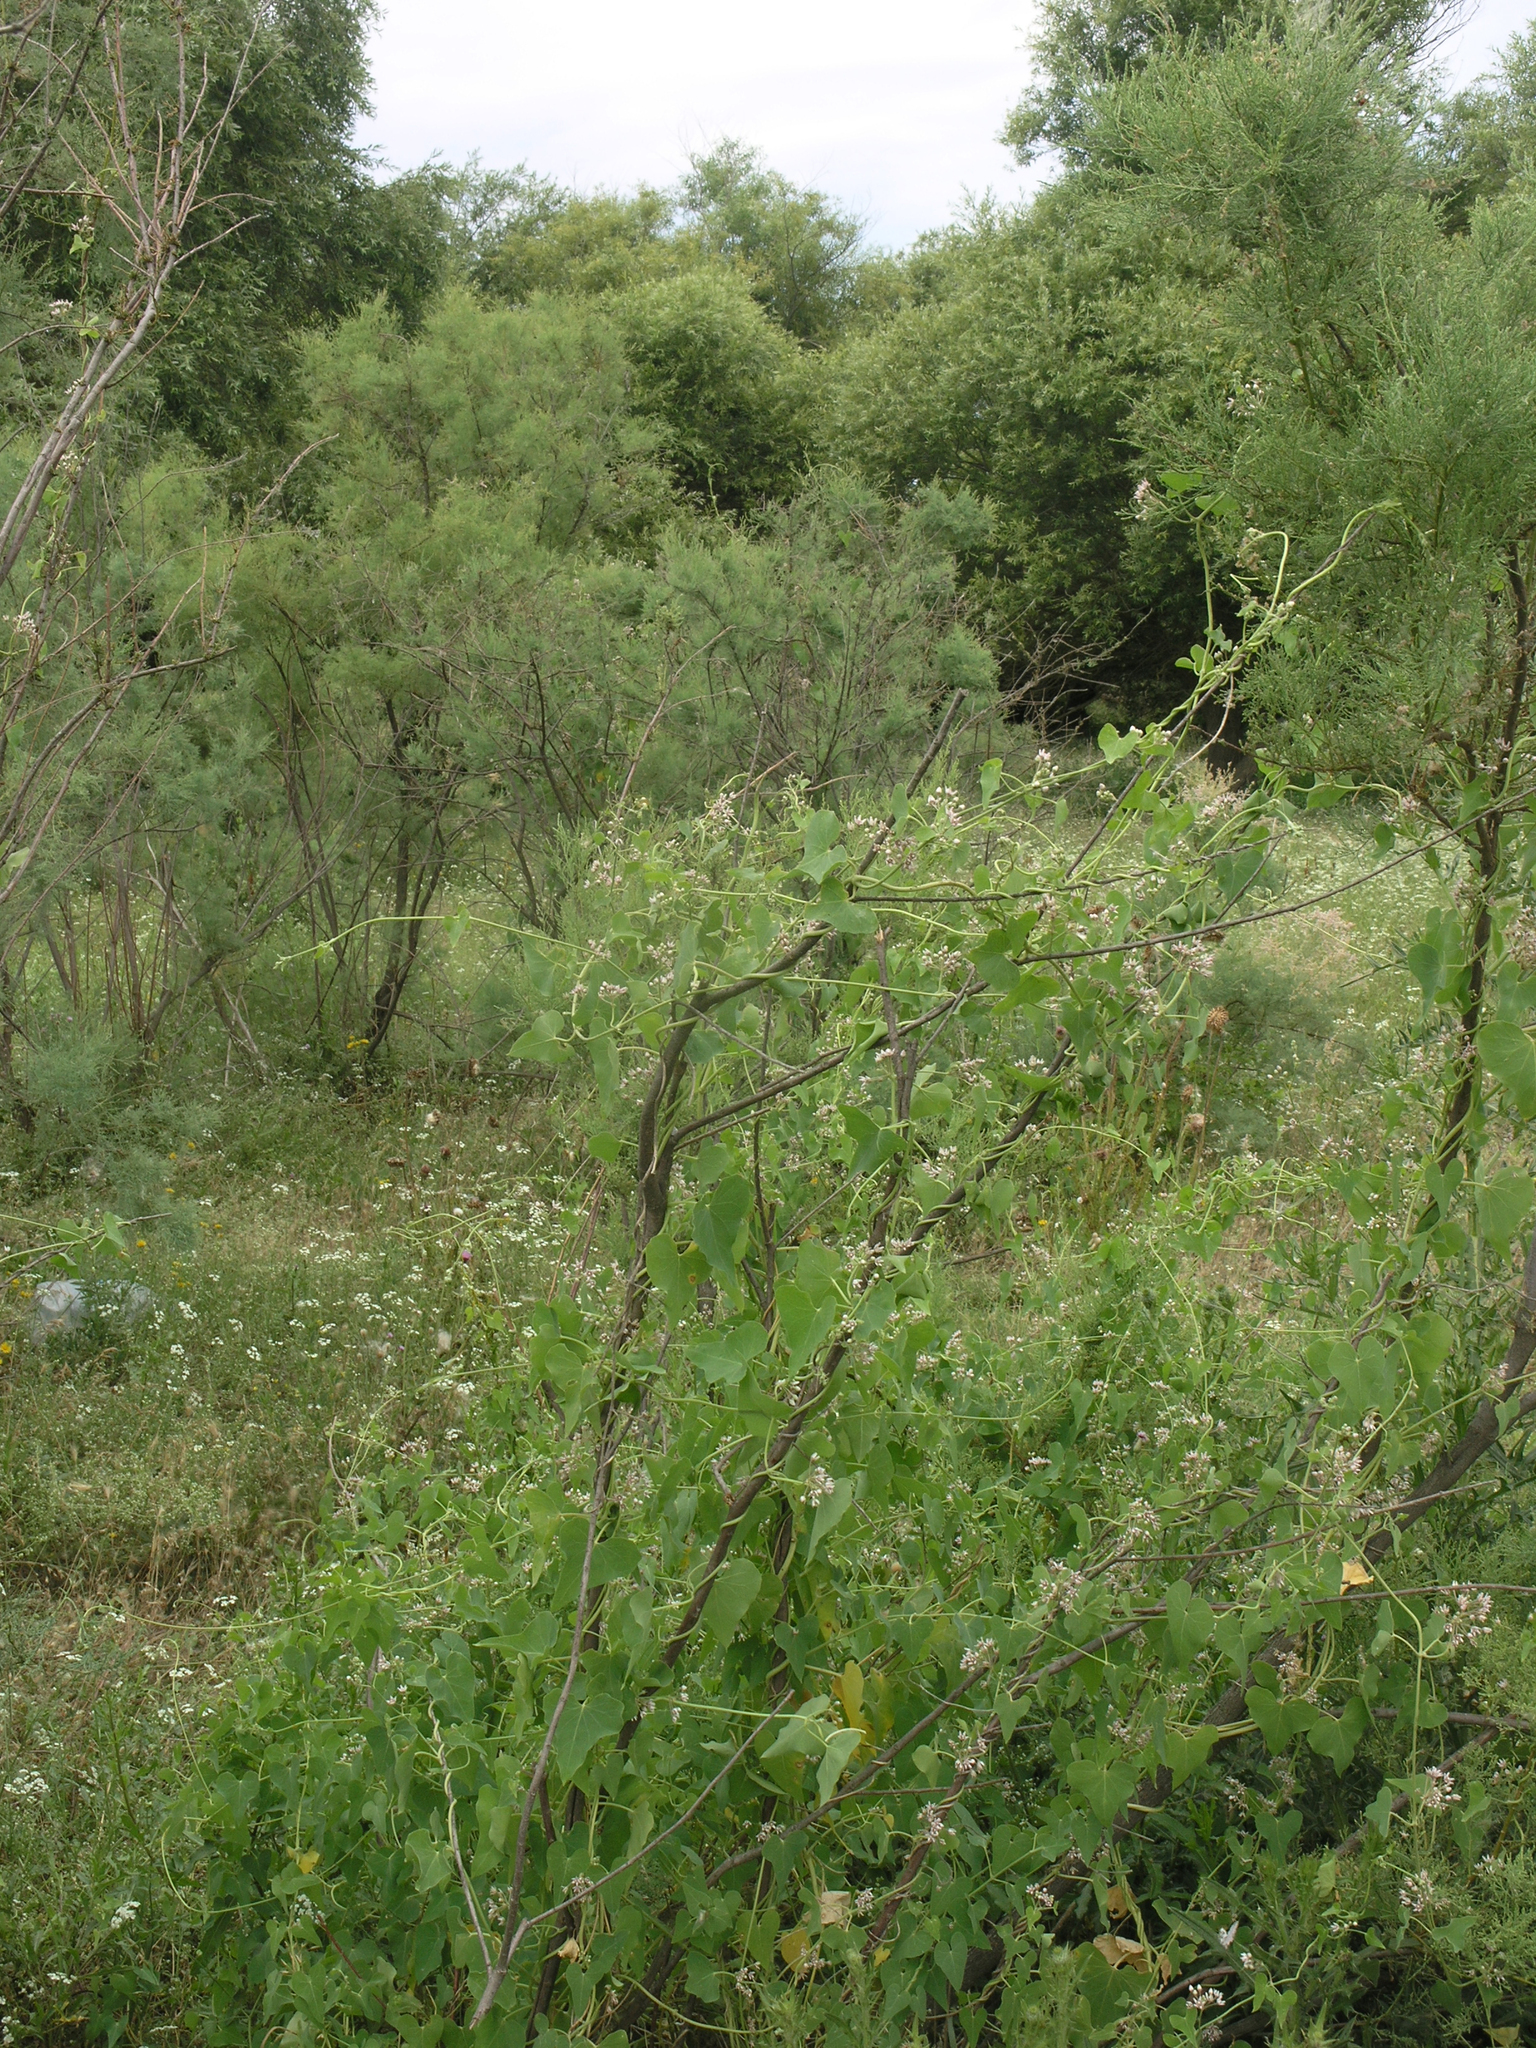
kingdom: Plantae
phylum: Tracheophyta
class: Magnoliopsida
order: Gentianales
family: Apocynaceae
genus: Cynanchum
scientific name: Cynanchum acutum
